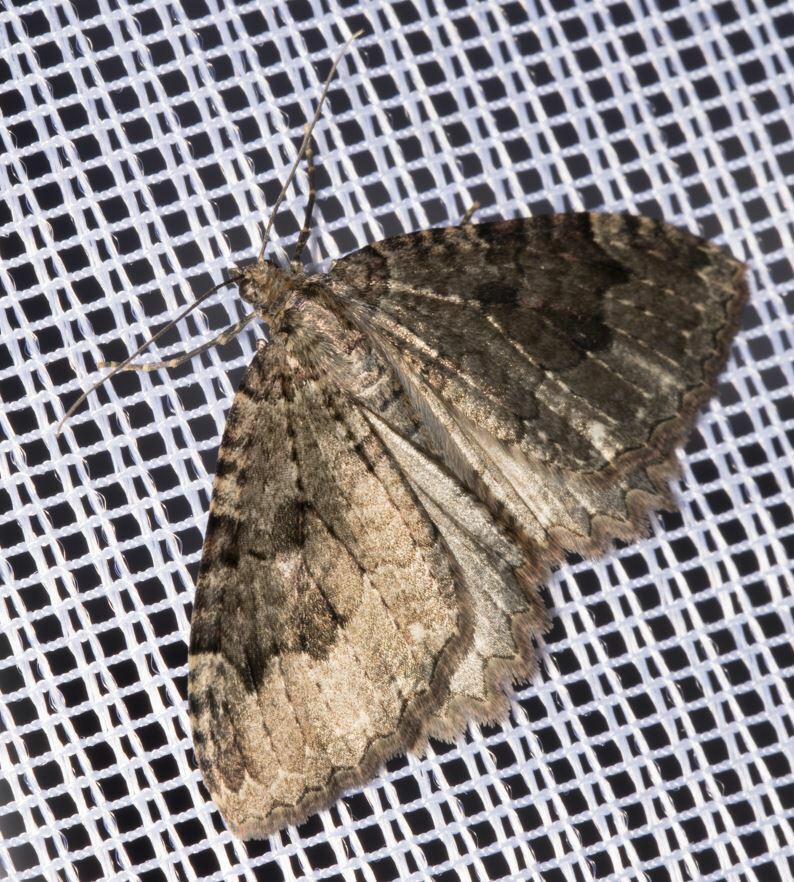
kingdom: Animalia
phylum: Arthropoda
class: Insecta
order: Lepidoptera
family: Geometridae
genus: Triphosa
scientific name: Triphosa dubitata
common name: Tissue
